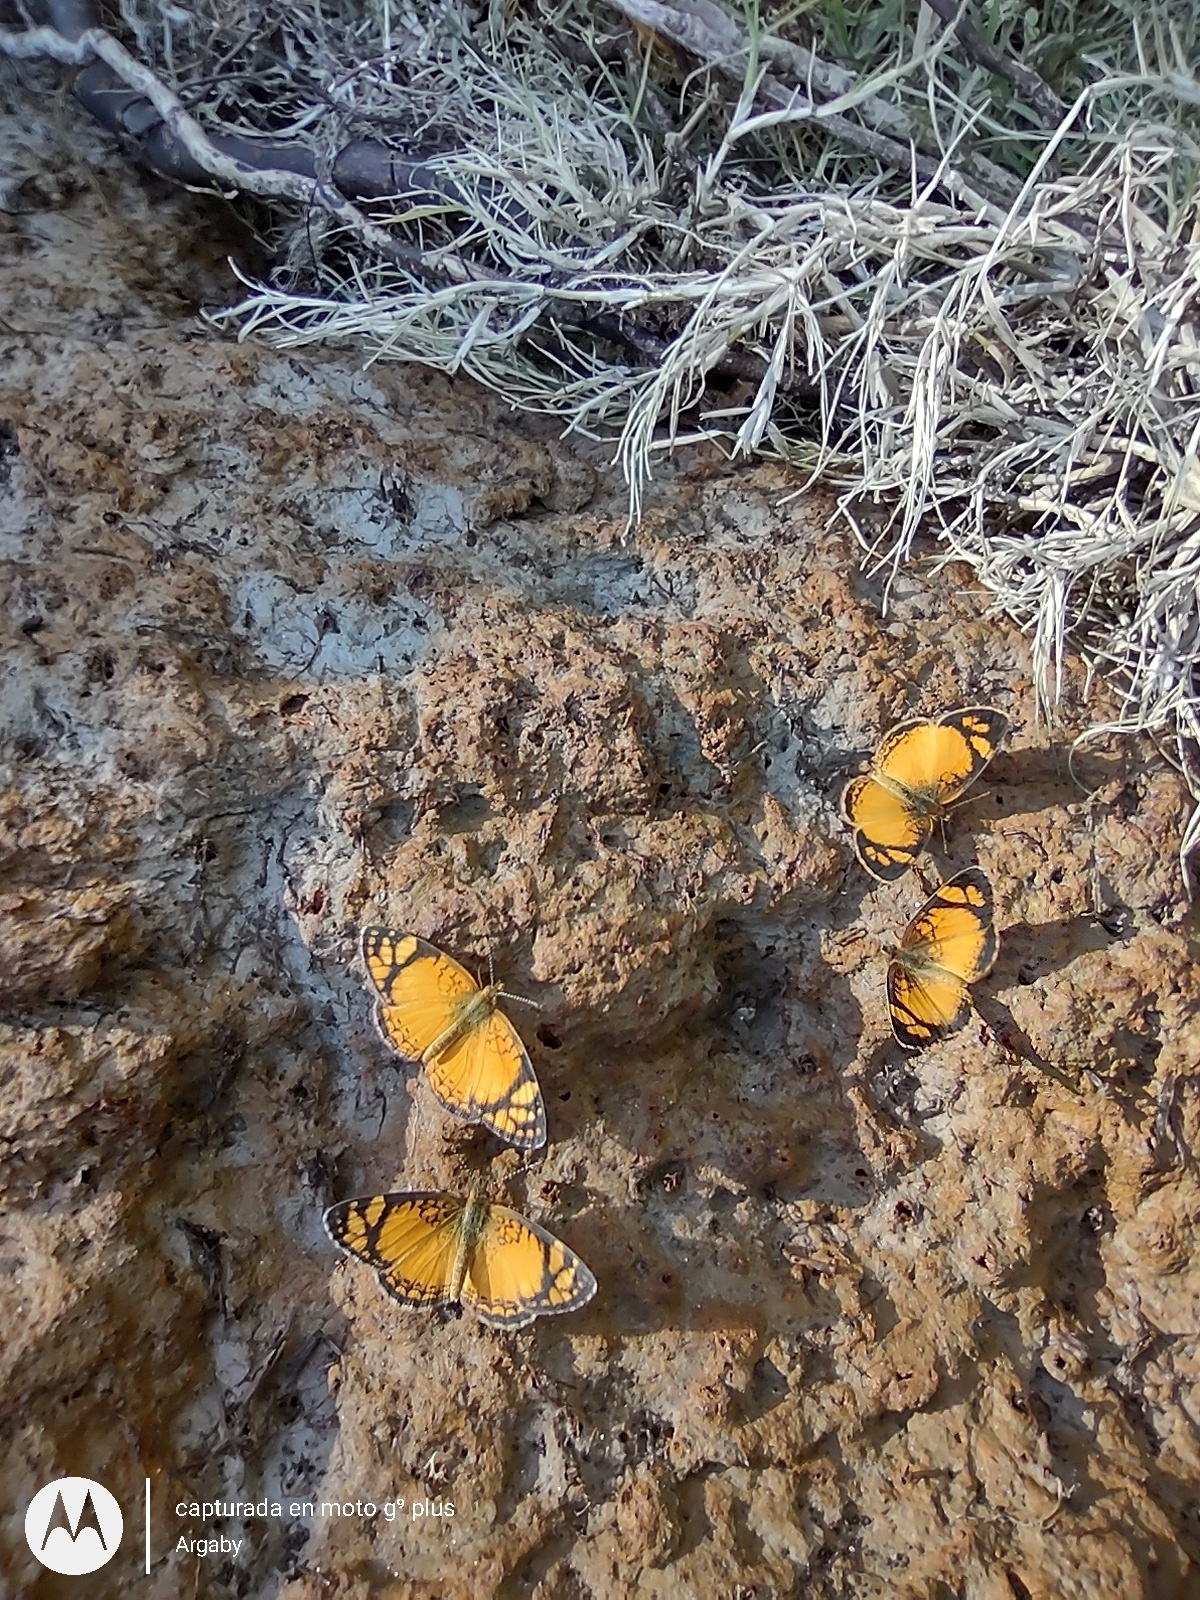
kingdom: Animalia
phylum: Arthropoda
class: Insecta
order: Lepidoptera
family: Nymphalidae
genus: Tegosa
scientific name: Tegosa orobia
